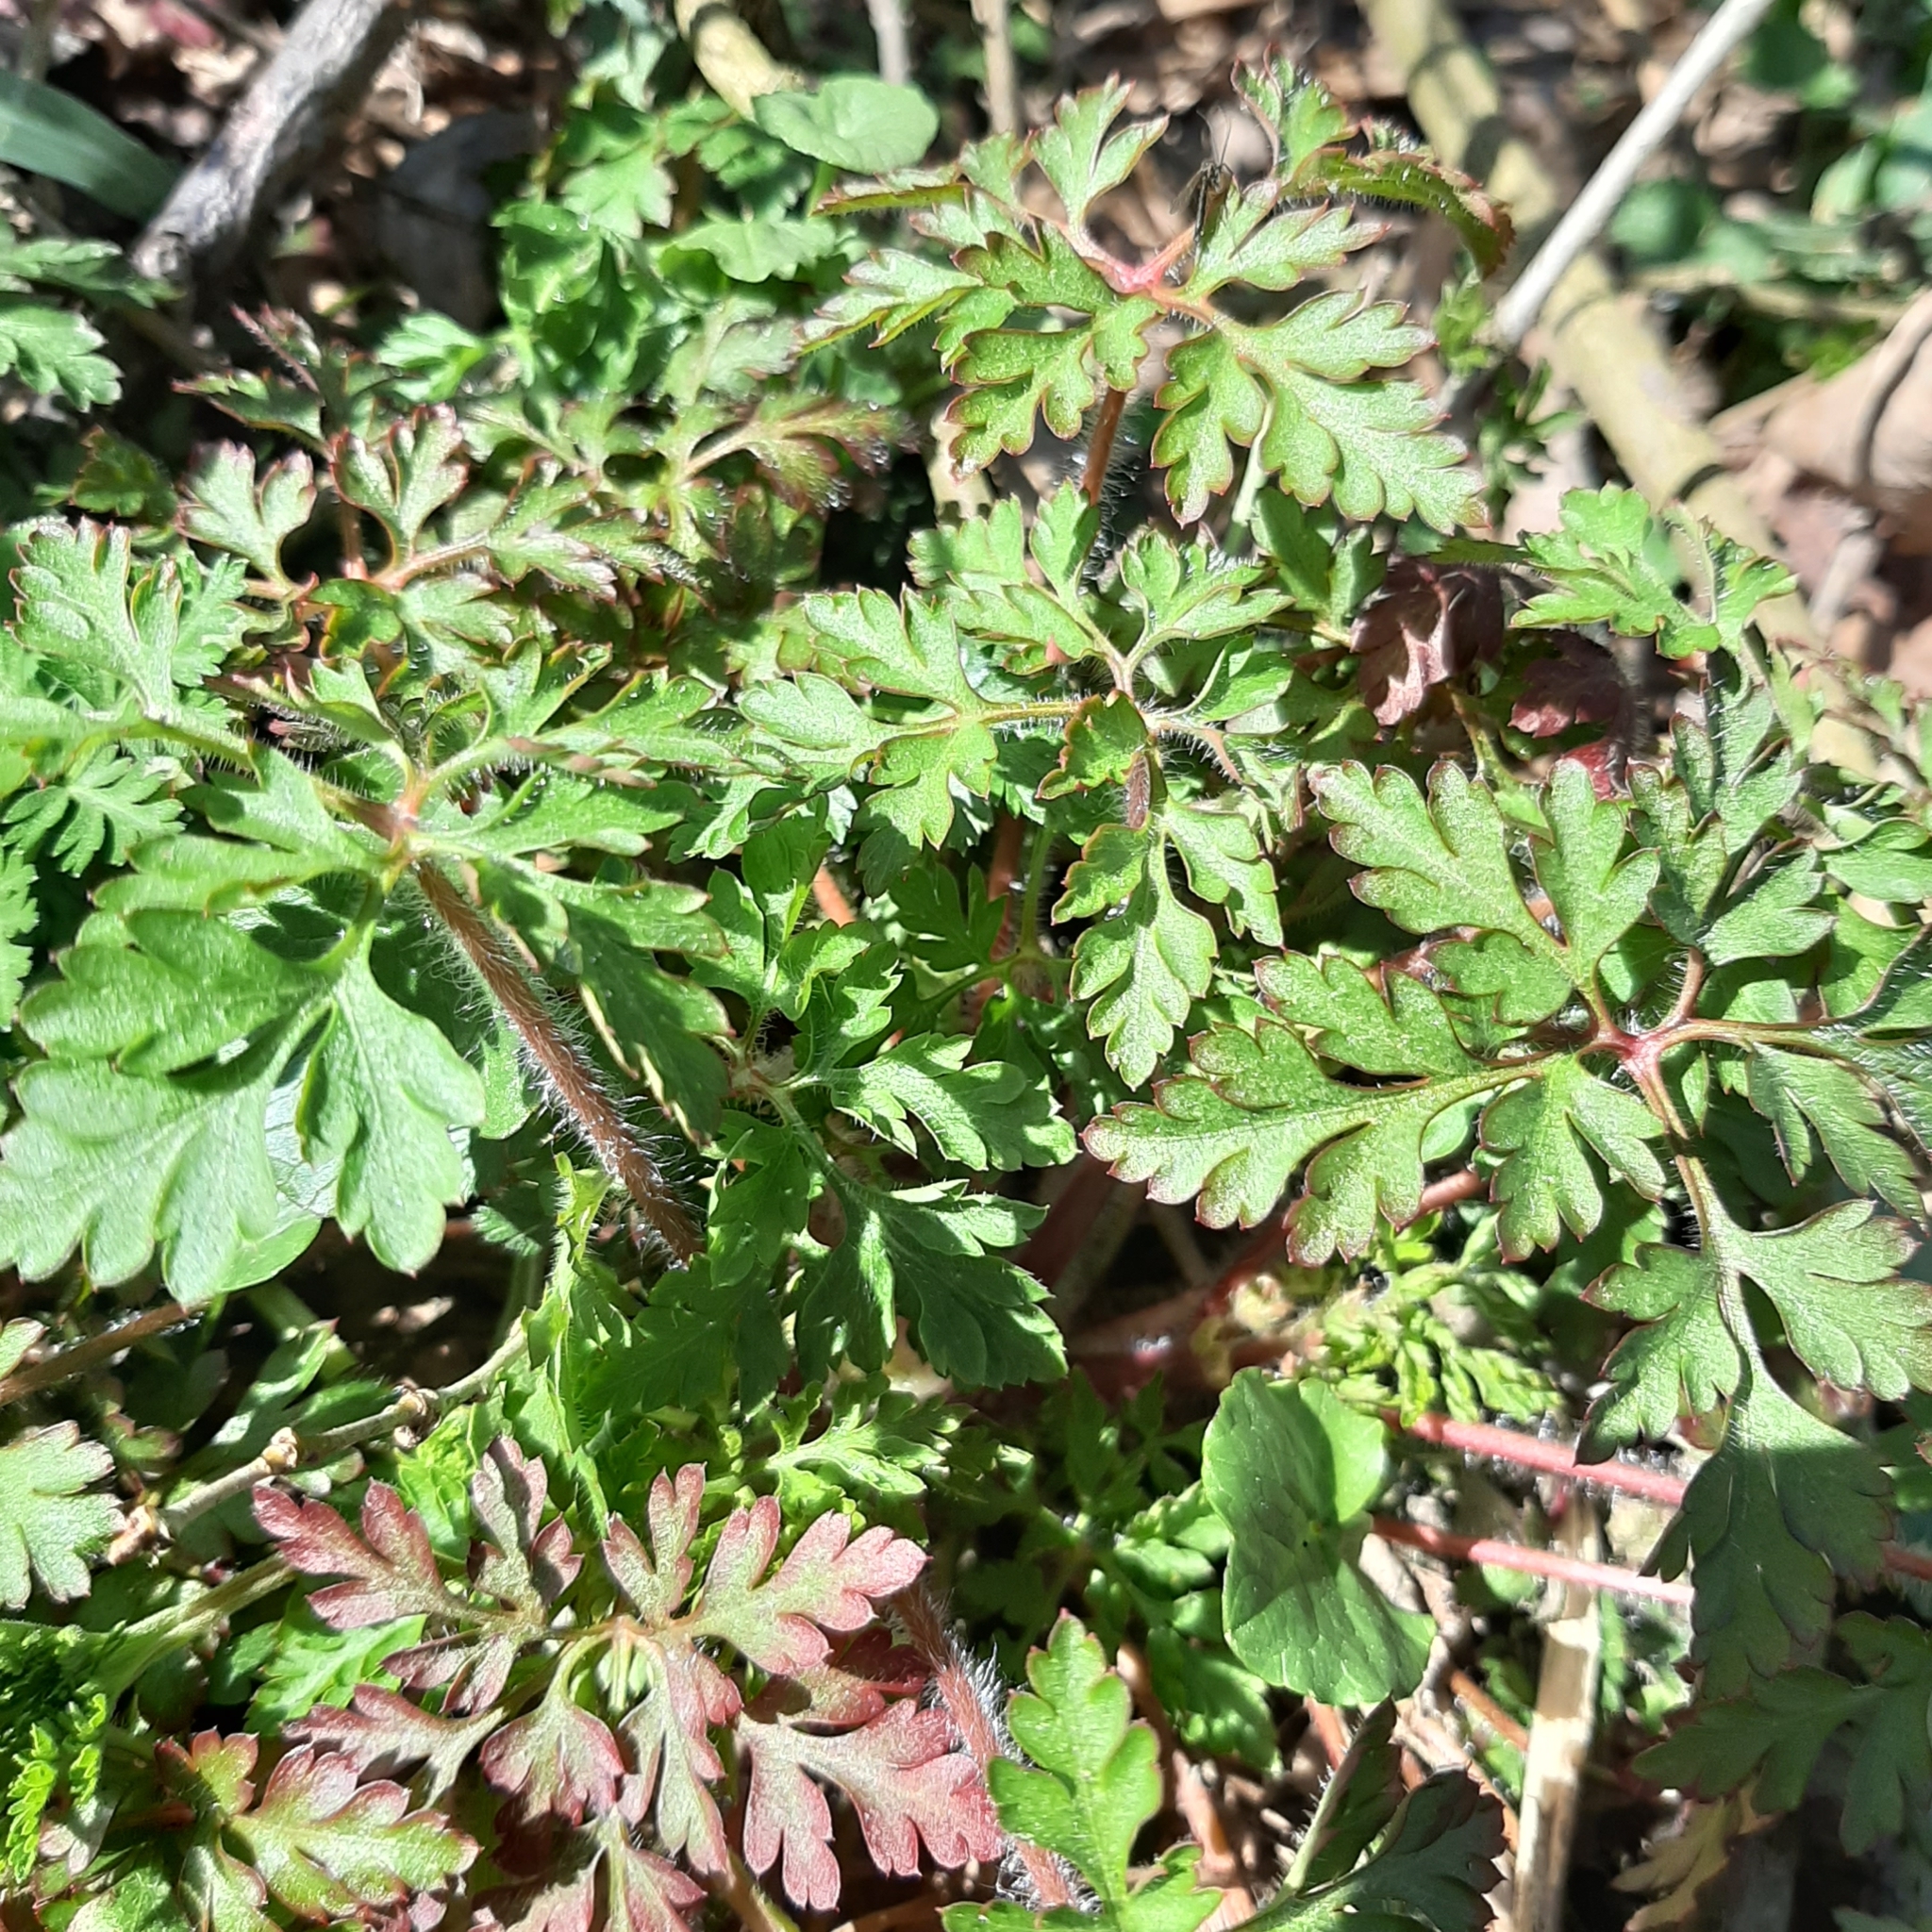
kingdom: Plantae
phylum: Tracheophyta
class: Magnoliopsida
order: Geraniales
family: Geraniaceae
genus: Geranium
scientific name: Geranium robertianum
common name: Herb-robert
